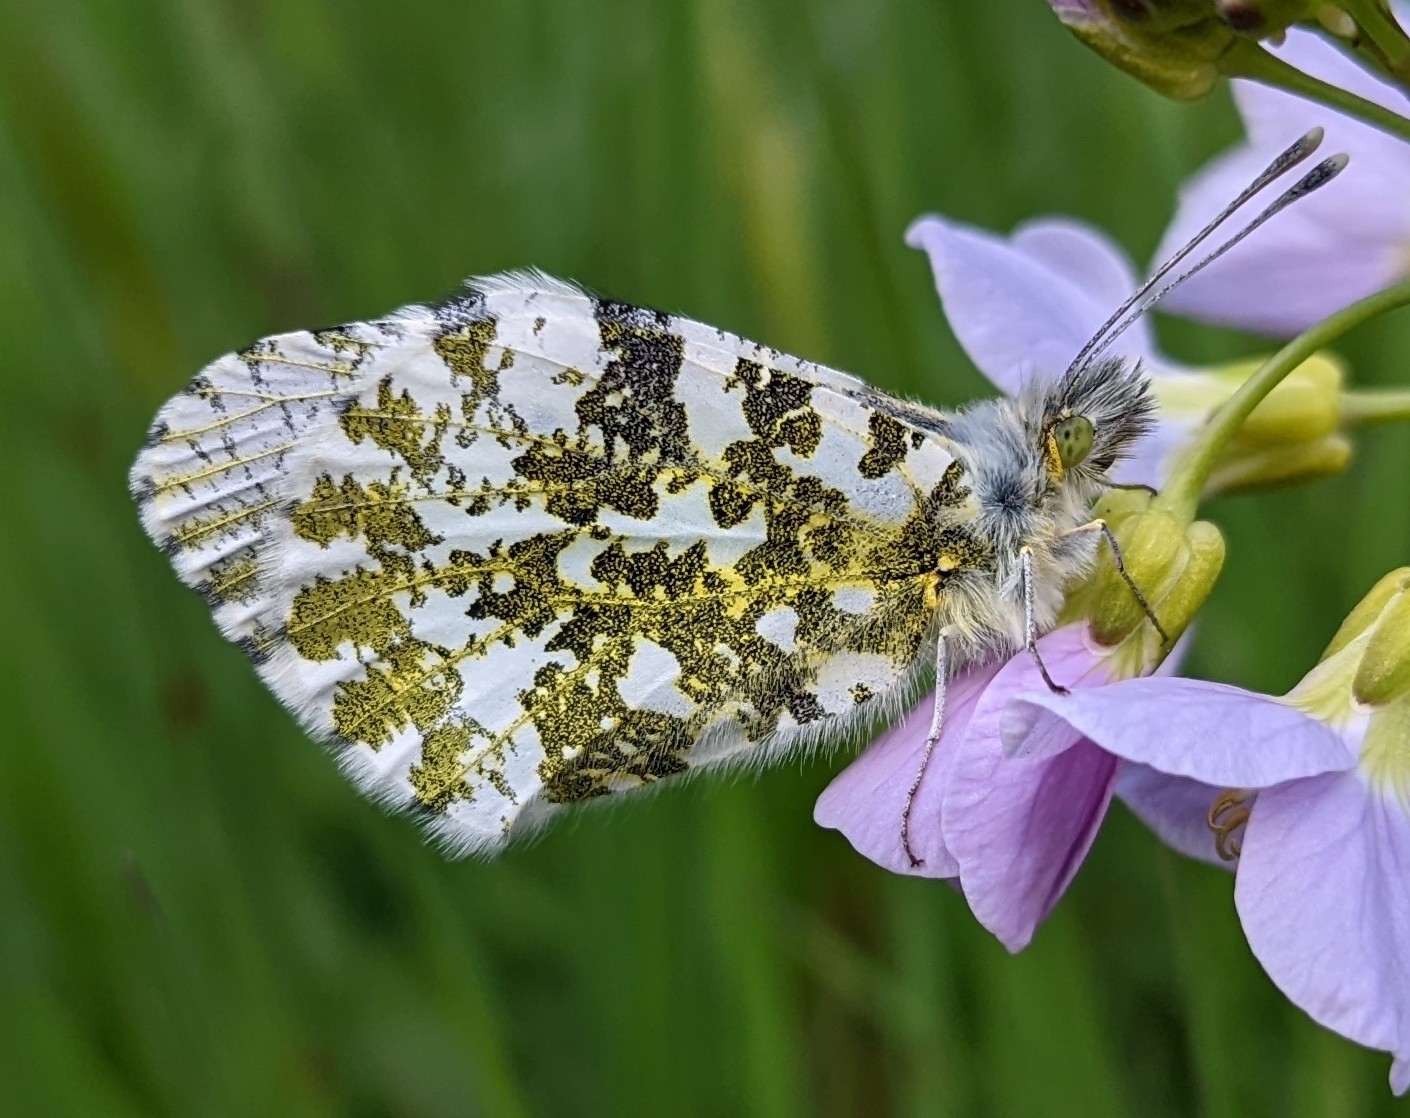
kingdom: Animalia
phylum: Arthropoda
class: Insecta
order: Lepidoptera
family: Pieridae
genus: Anthocharis
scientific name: Anthocharis cardamines
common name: Orange-tip
